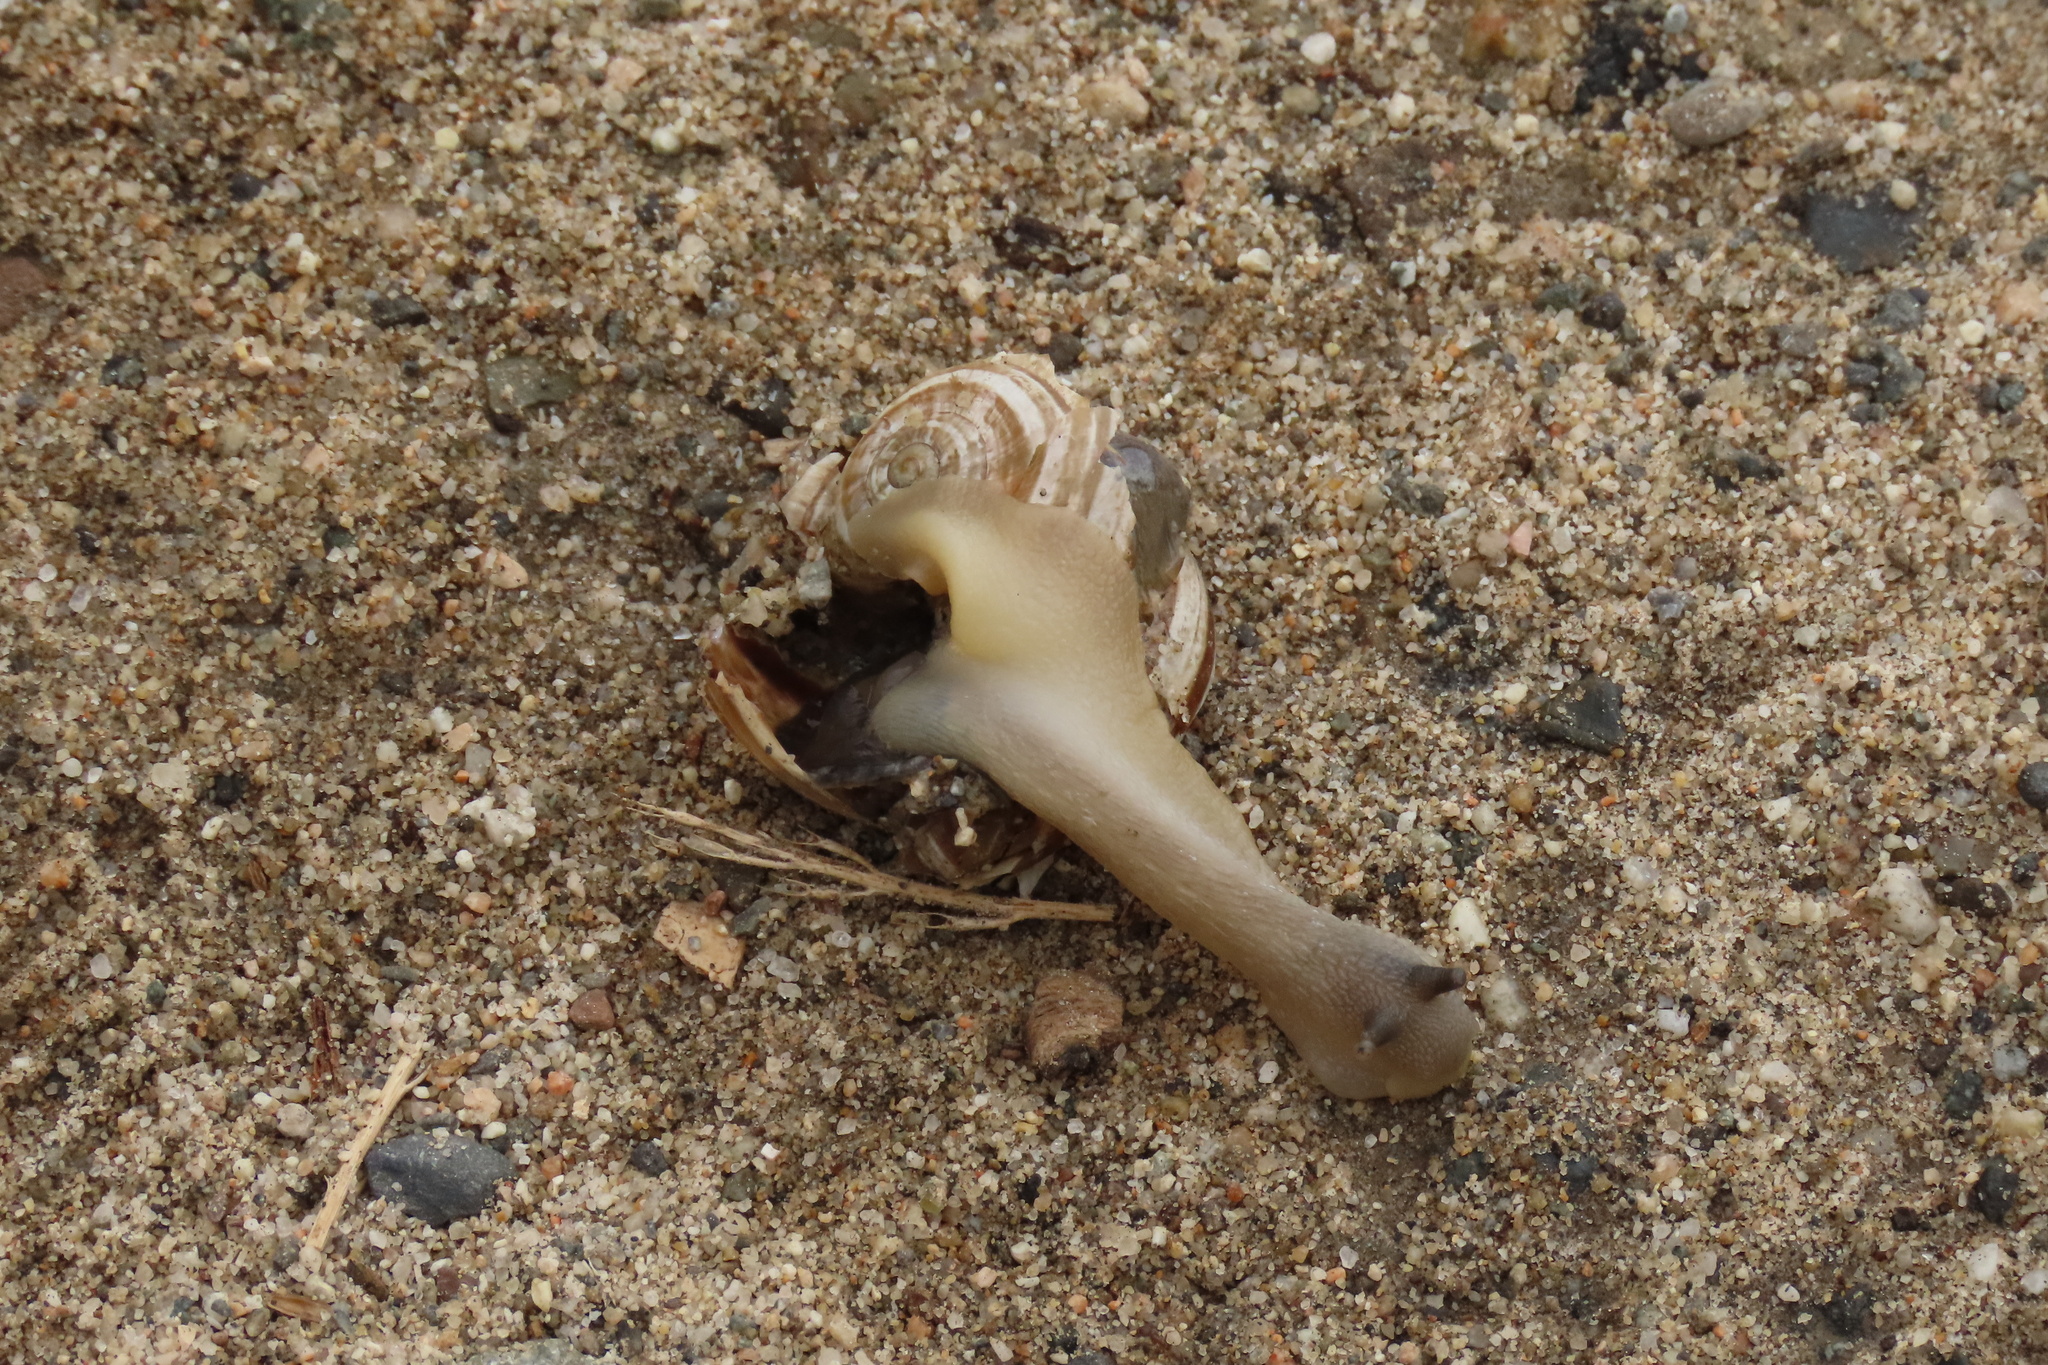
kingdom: Animalia
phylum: Mollusca
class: Gastropoda
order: Stylommatophora
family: Helicidae
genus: Otala
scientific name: Otala lactea
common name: Milk snail
